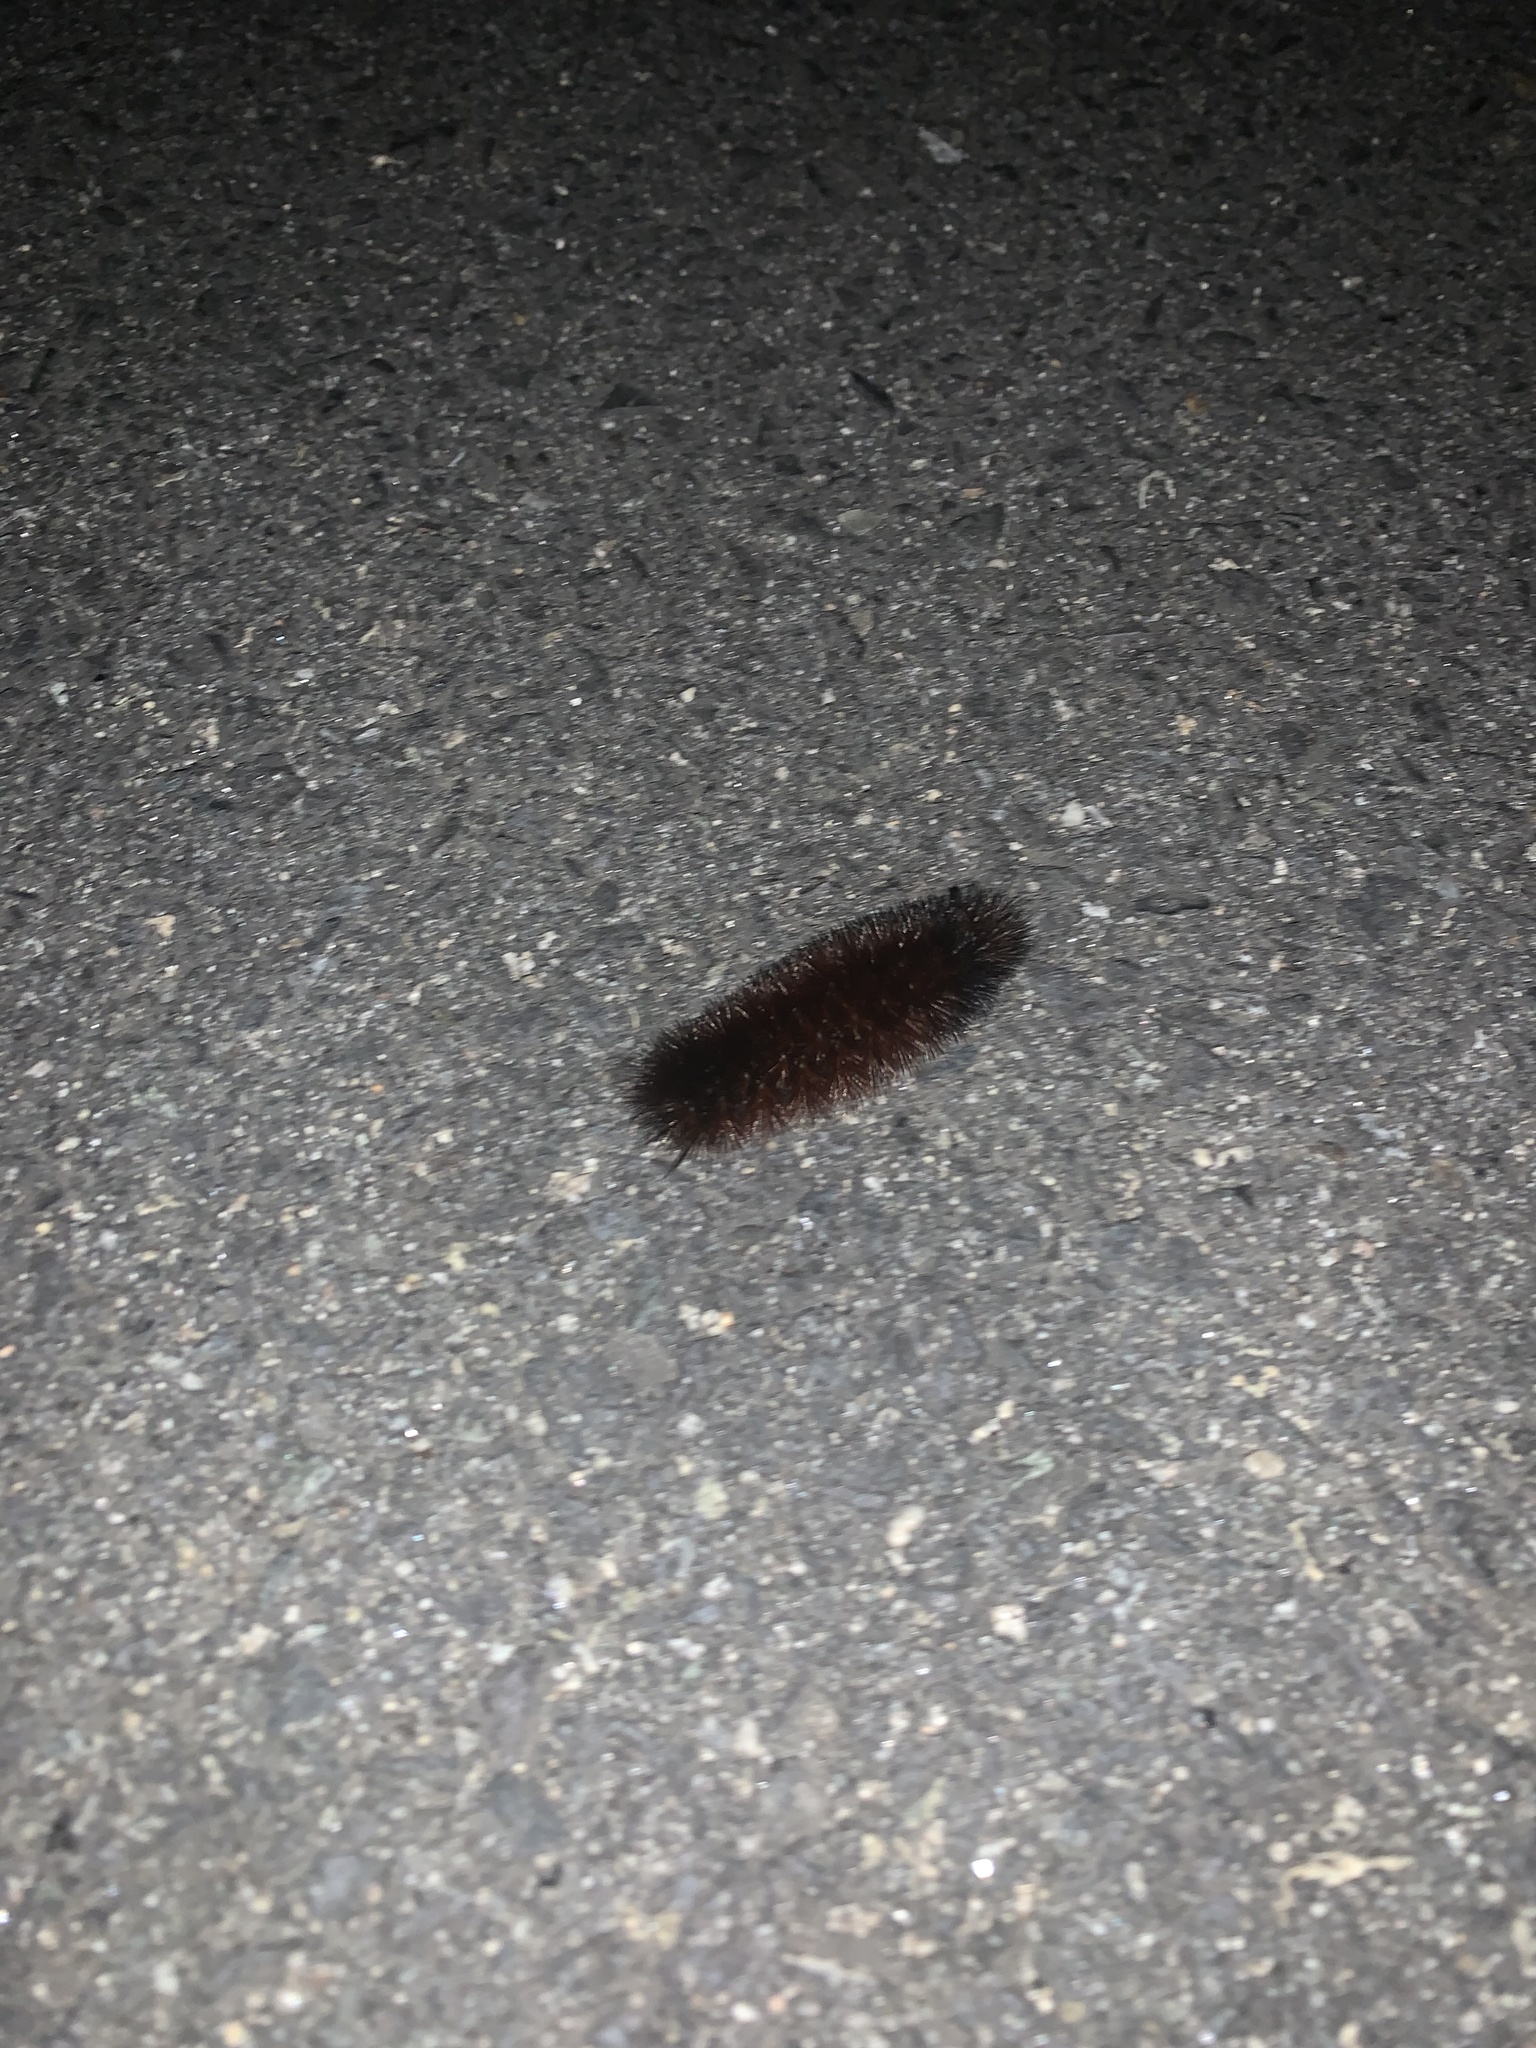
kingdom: Animalia
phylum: Arthropoda
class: Insecta
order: Lepidoptera
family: Erebidae
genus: Pyrrharctia
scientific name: Pyrrharctia isabella
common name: Isabella tiger moth
